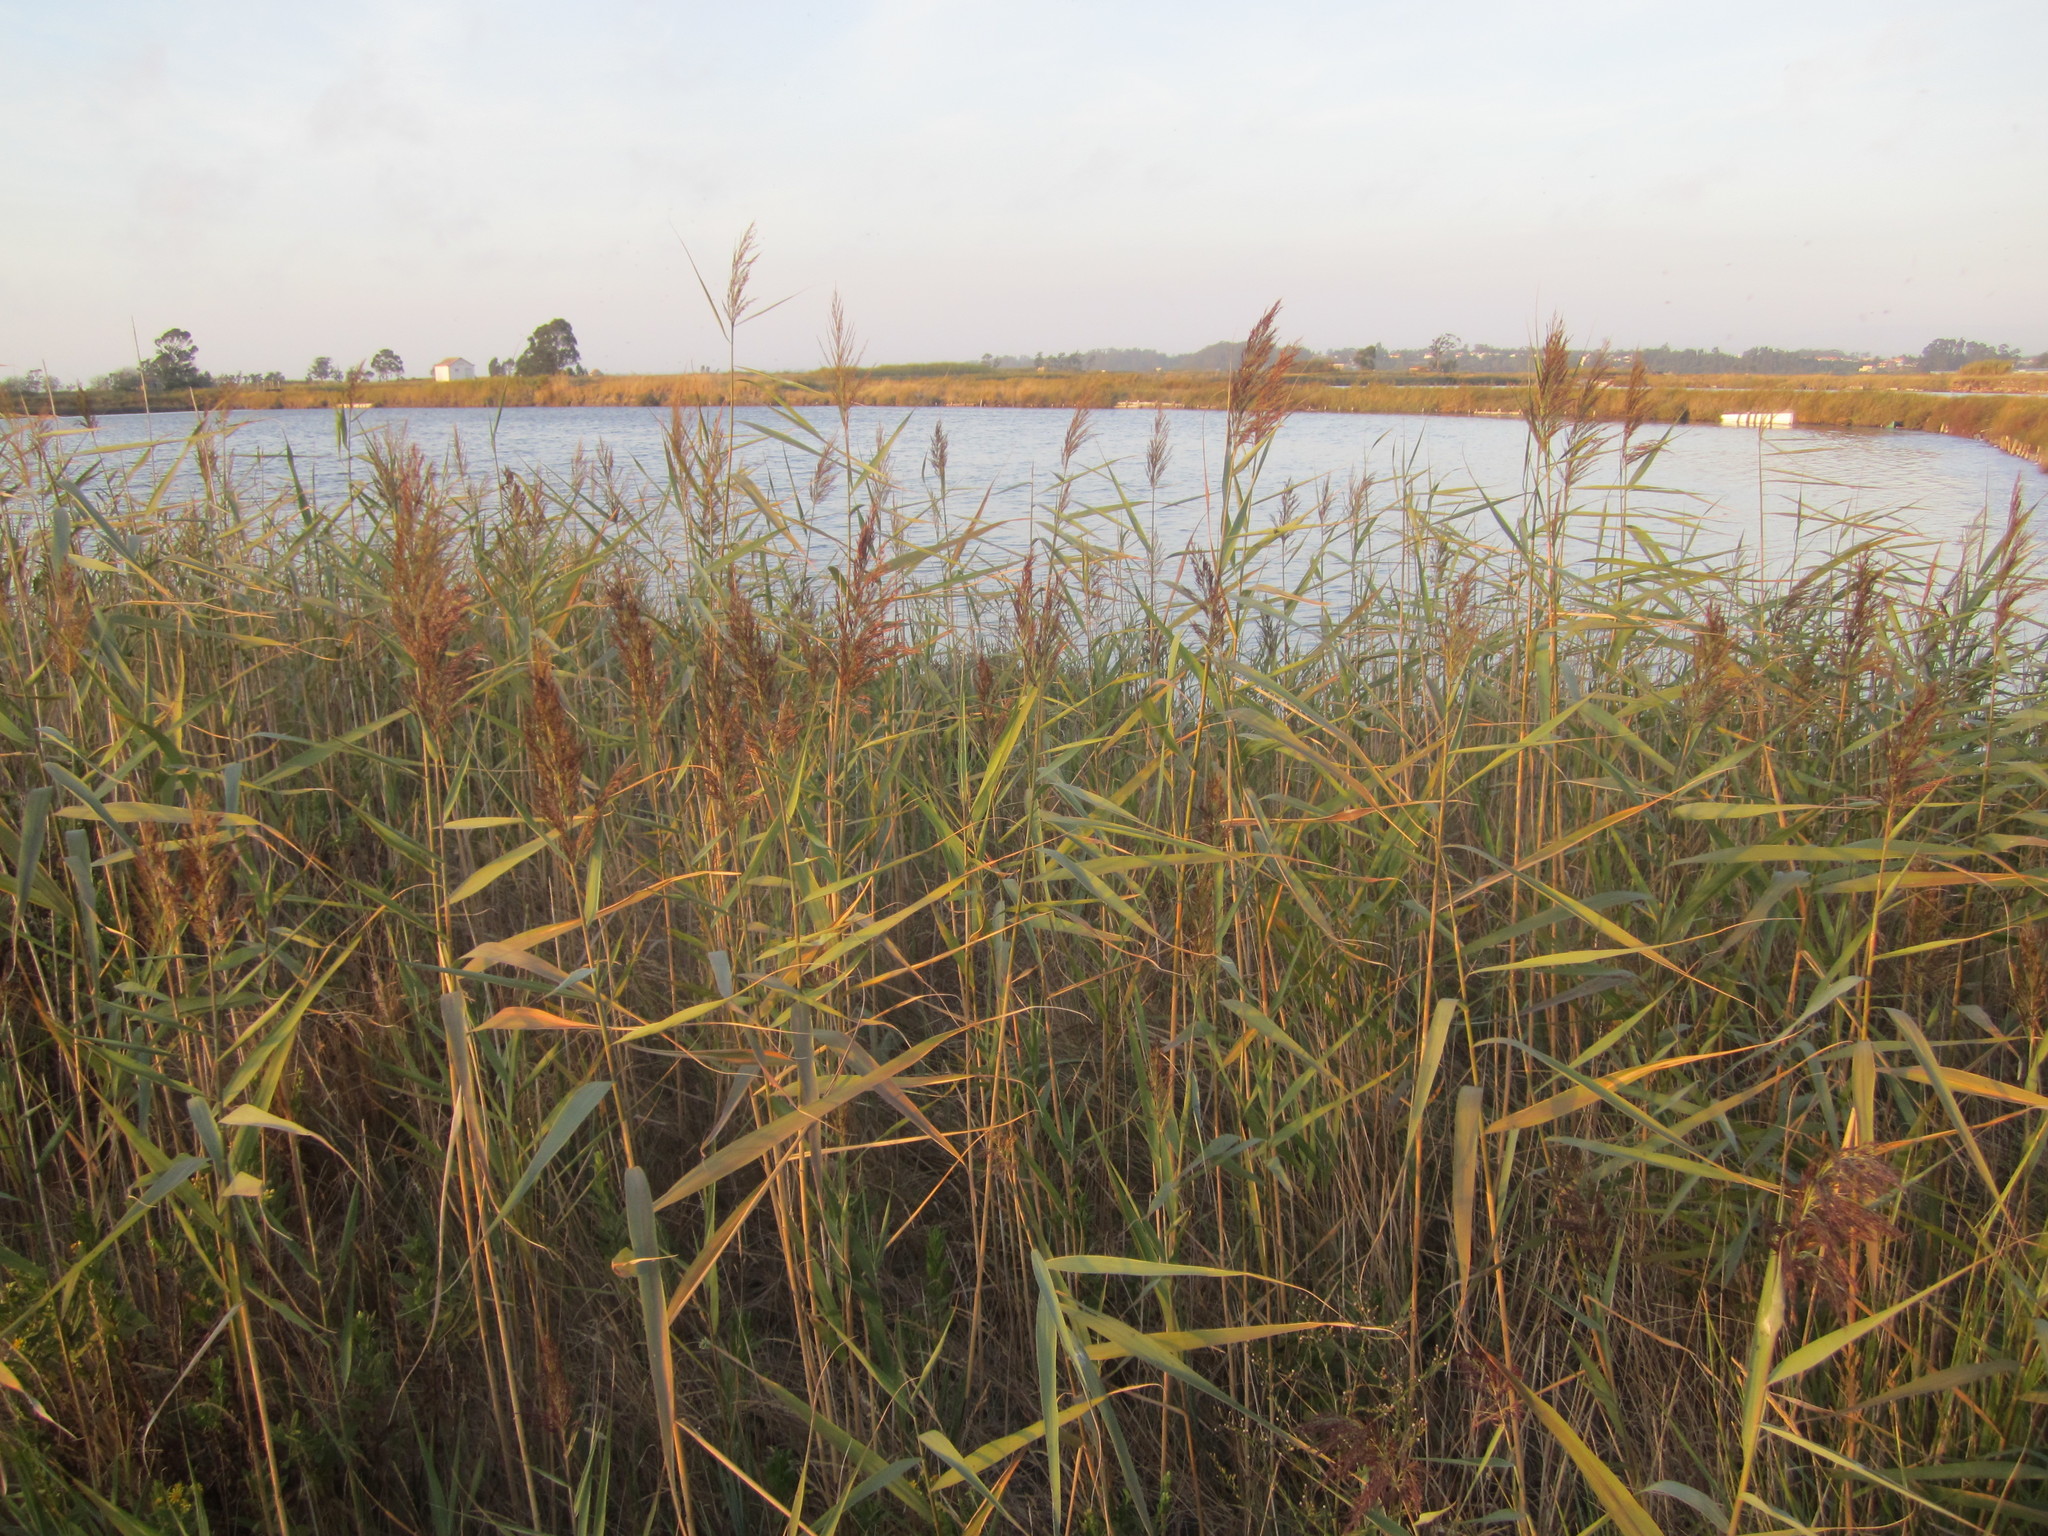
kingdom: Plantae
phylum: Tracheophyta
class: Liliopsida
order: Poales
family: Poaceae
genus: Phragmites
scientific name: Phragmites australis
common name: Common reed
